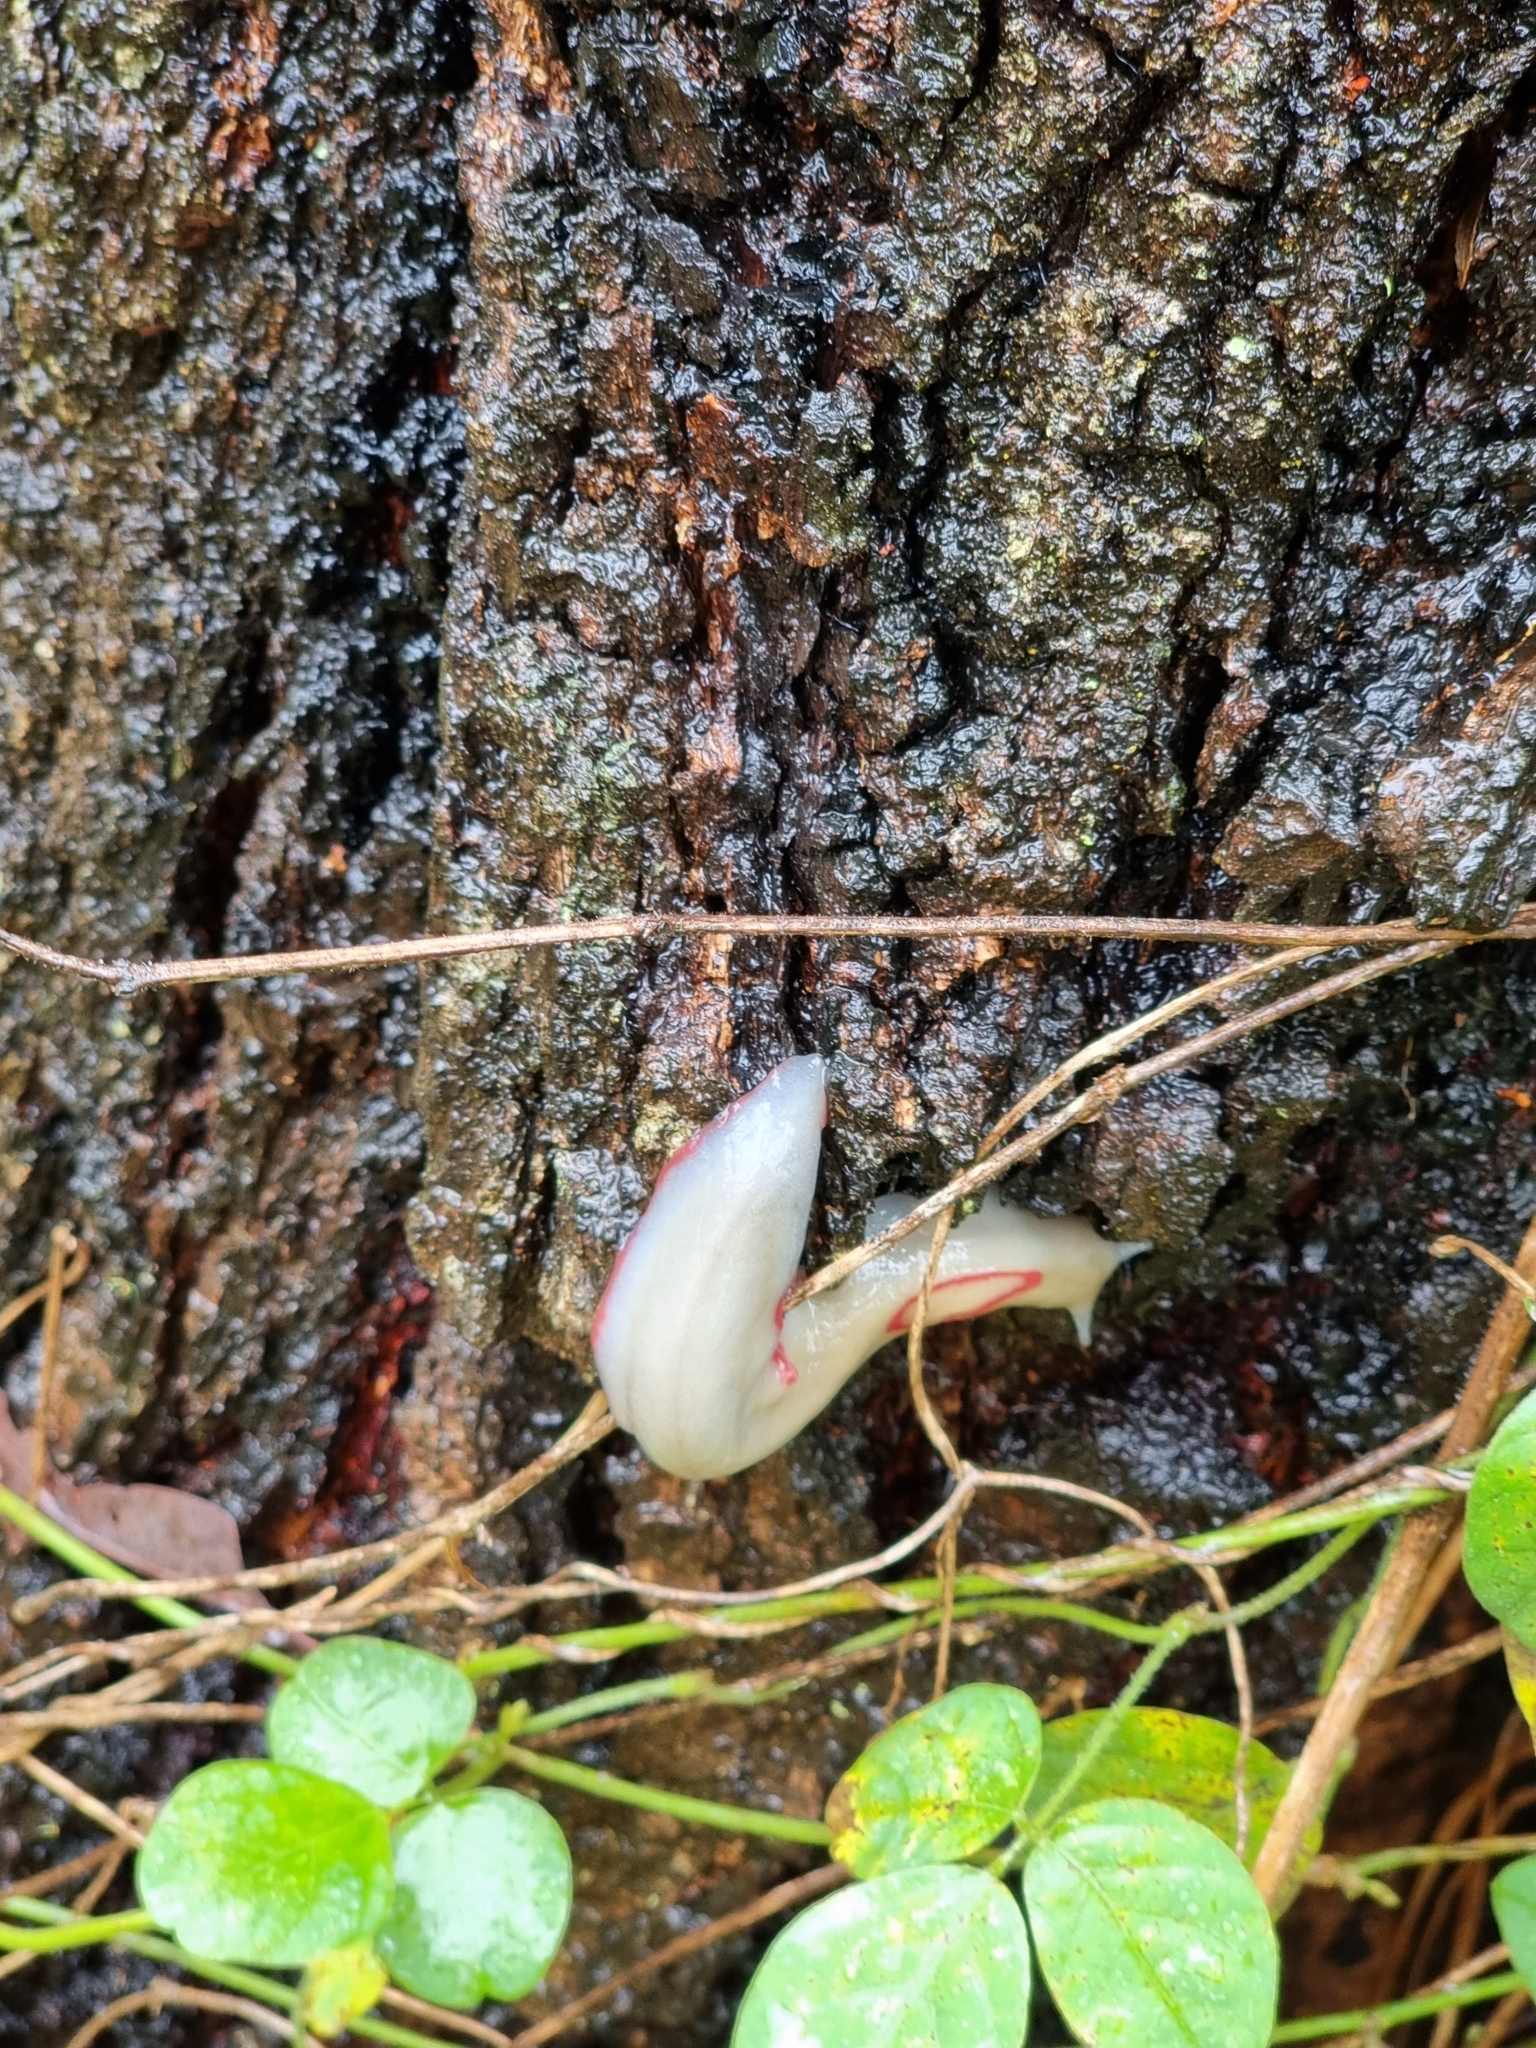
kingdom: Animalia
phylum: Mollusca
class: Gastropoda
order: Stylommatophora
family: Athoracophoridae
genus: Triboniophorus
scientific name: Triboniophorus graeffei
